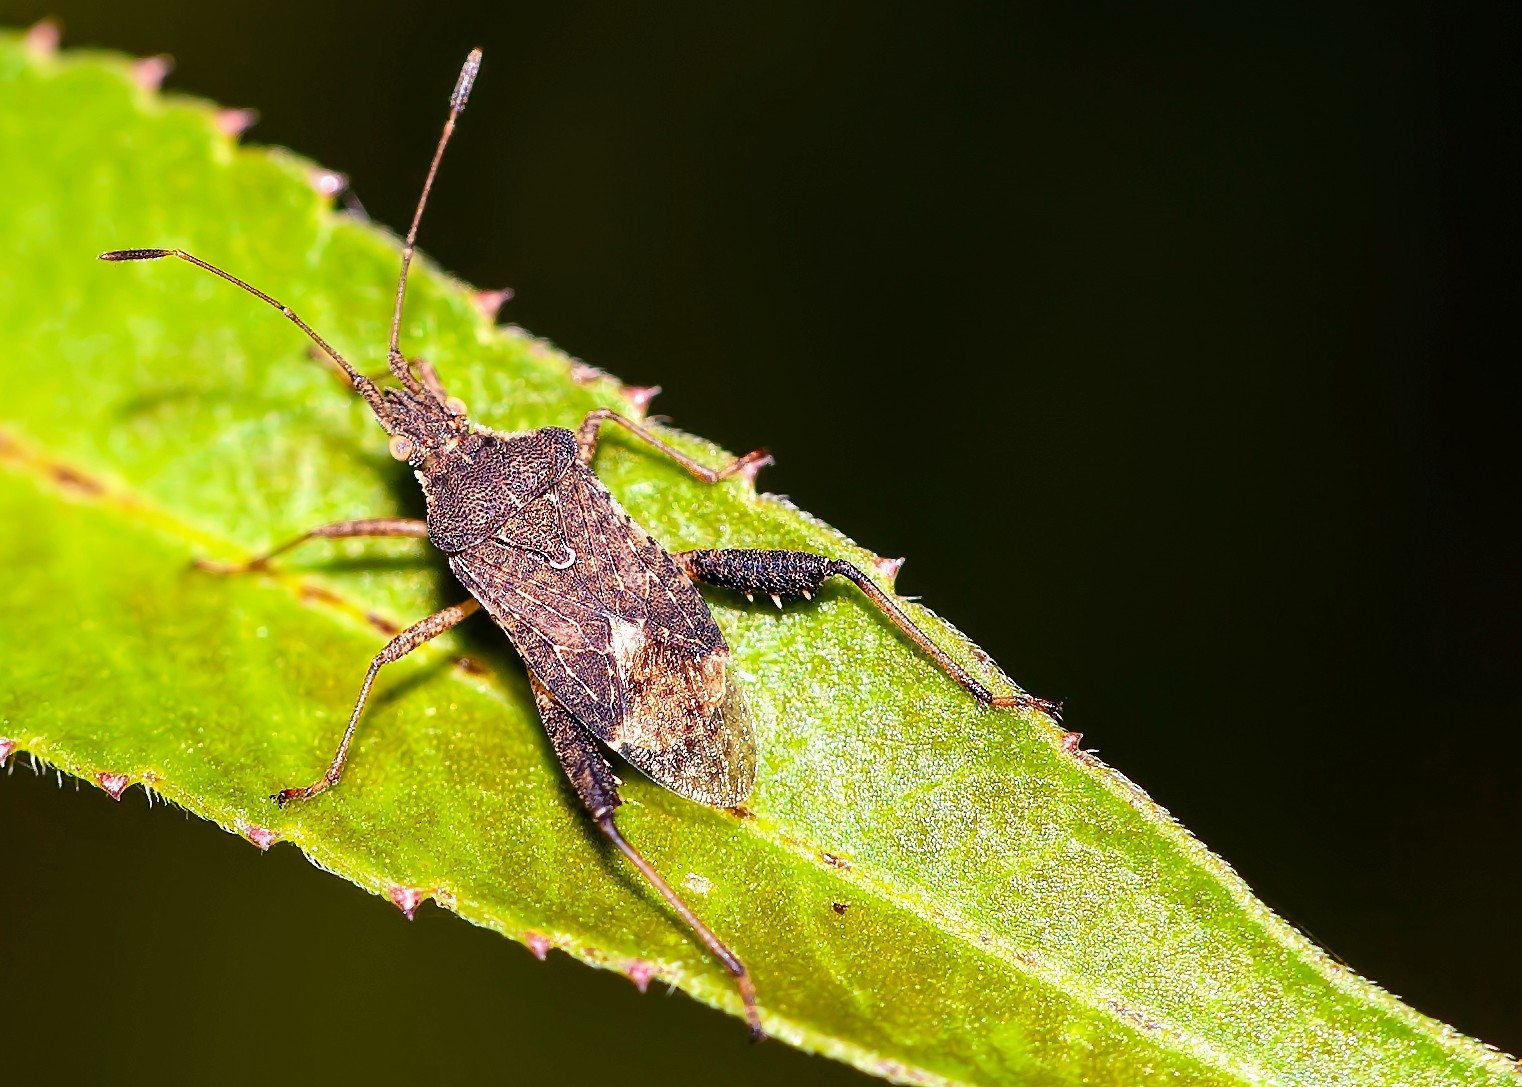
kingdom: Animalia
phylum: Arthropoda
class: Insecta
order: Hemiptera
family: Rhopalidae
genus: Harmostes
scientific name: Harmostes serratus
